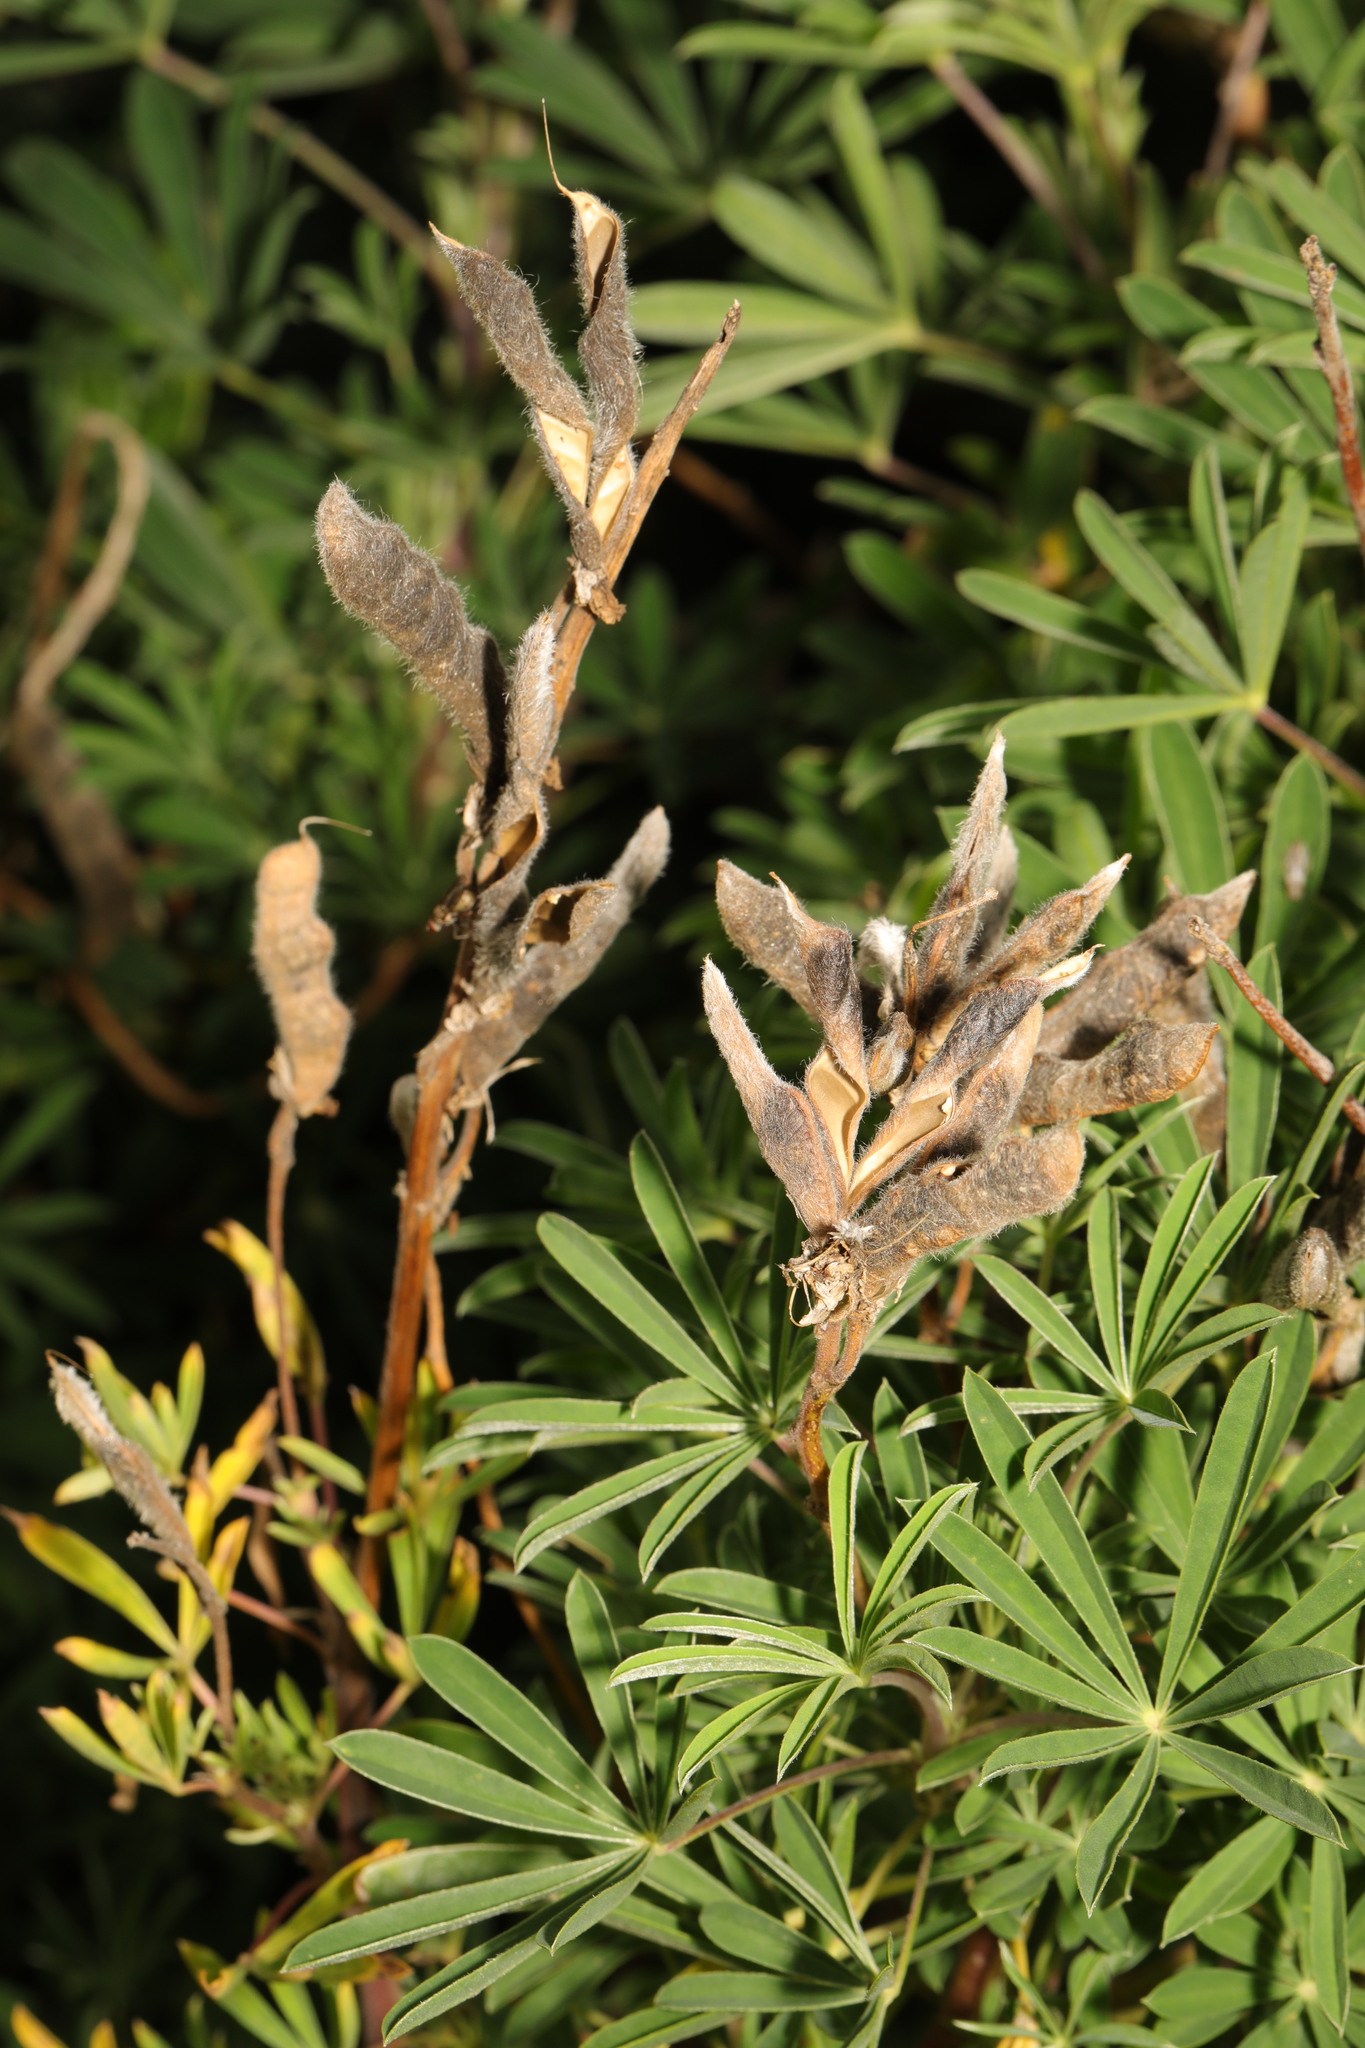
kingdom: Plantae
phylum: Tracheophyta
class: Magnoliopsida
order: Fabales
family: Fabaceae
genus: Lupinus
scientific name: Lupinus arboreus
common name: Yellow bush lupine
